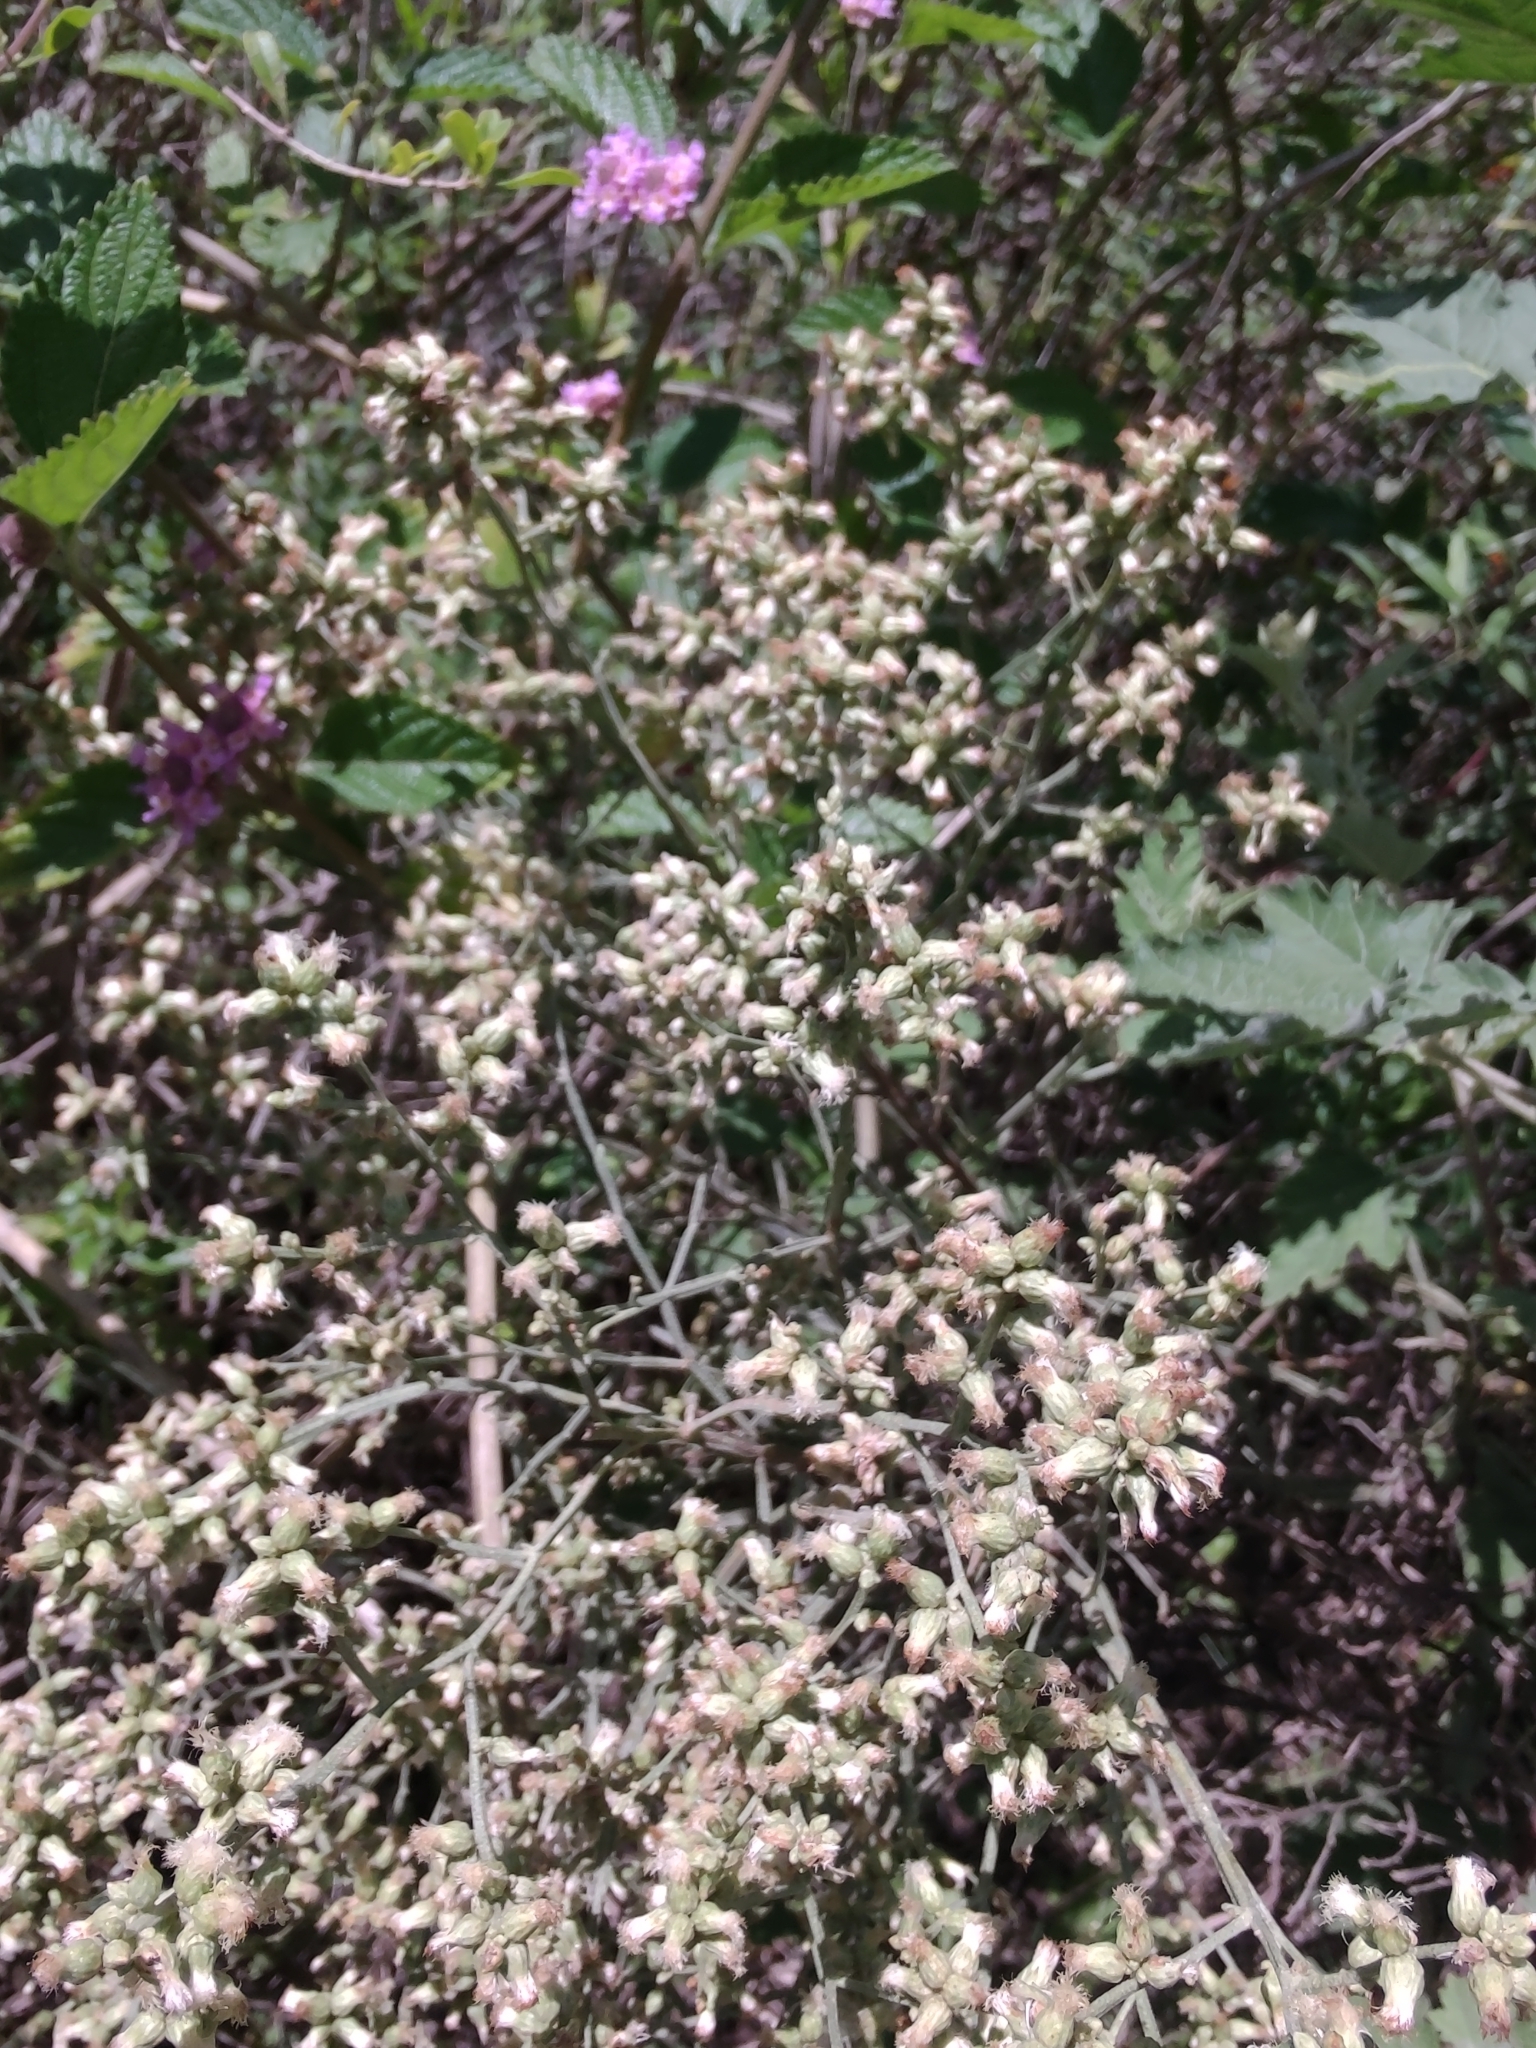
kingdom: Plantae
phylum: Tracheophyta
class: Magnoliopsida
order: Asterales
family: Asteraceae
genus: Baccharis
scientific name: Baccharis articulata
